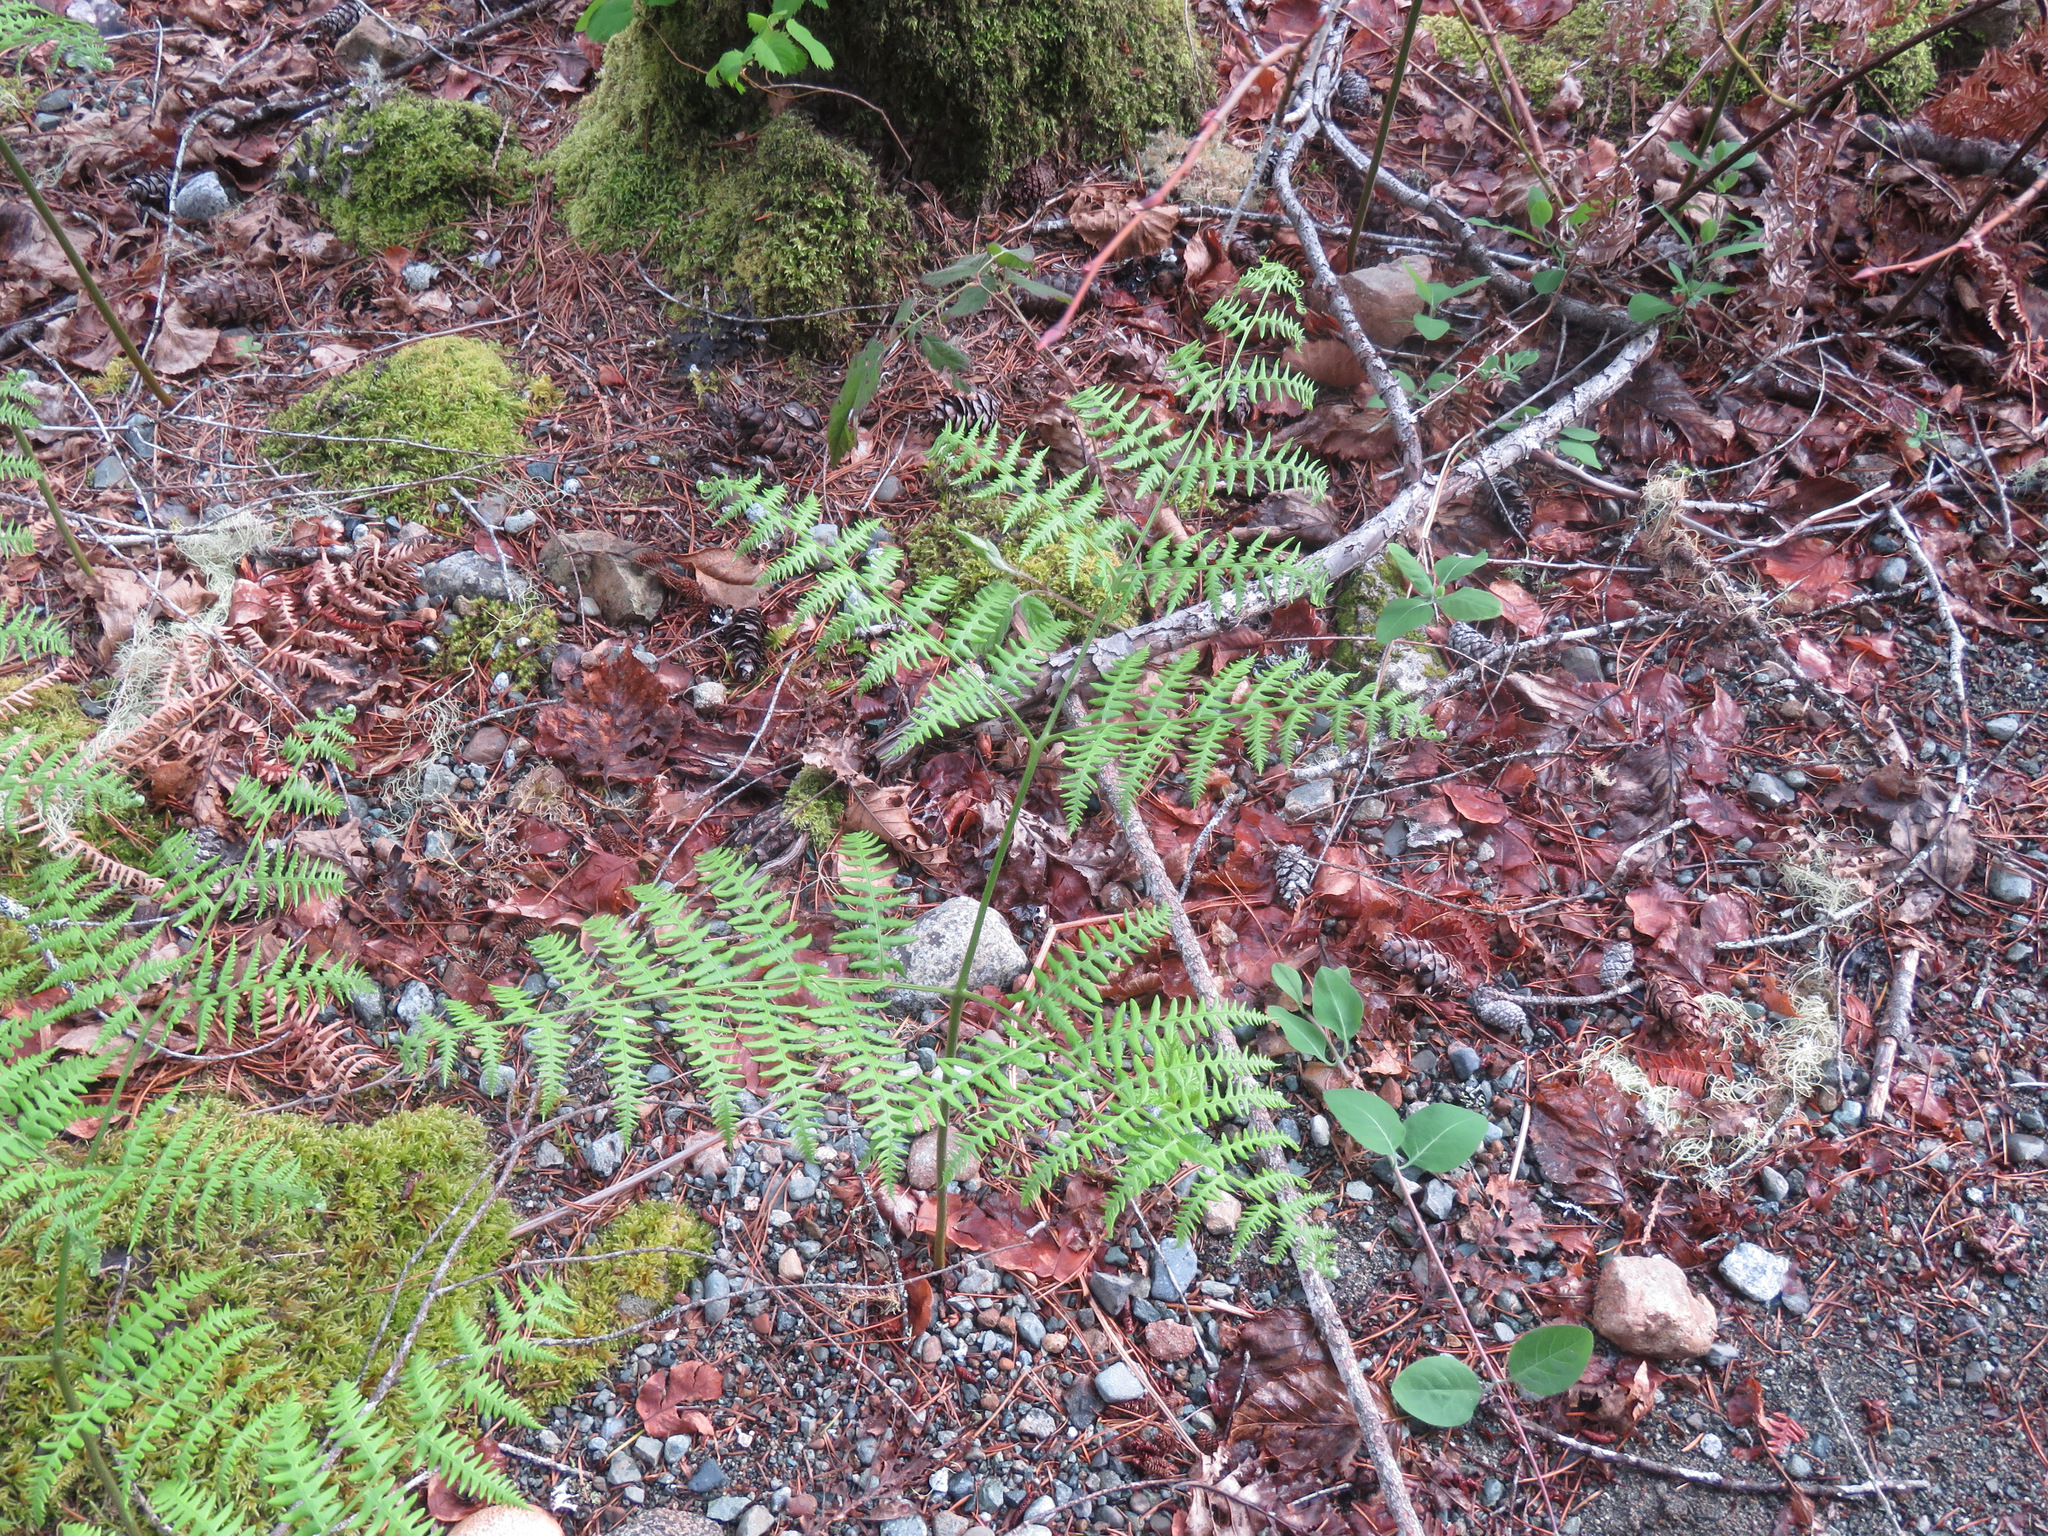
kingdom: Plantae
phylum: Tracheophyta
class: Polypodiopsida
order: Polypodiales
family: Dennstaedtiaceae
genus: Pteridium
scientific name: Pteridium aquilinum
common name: Bracken
